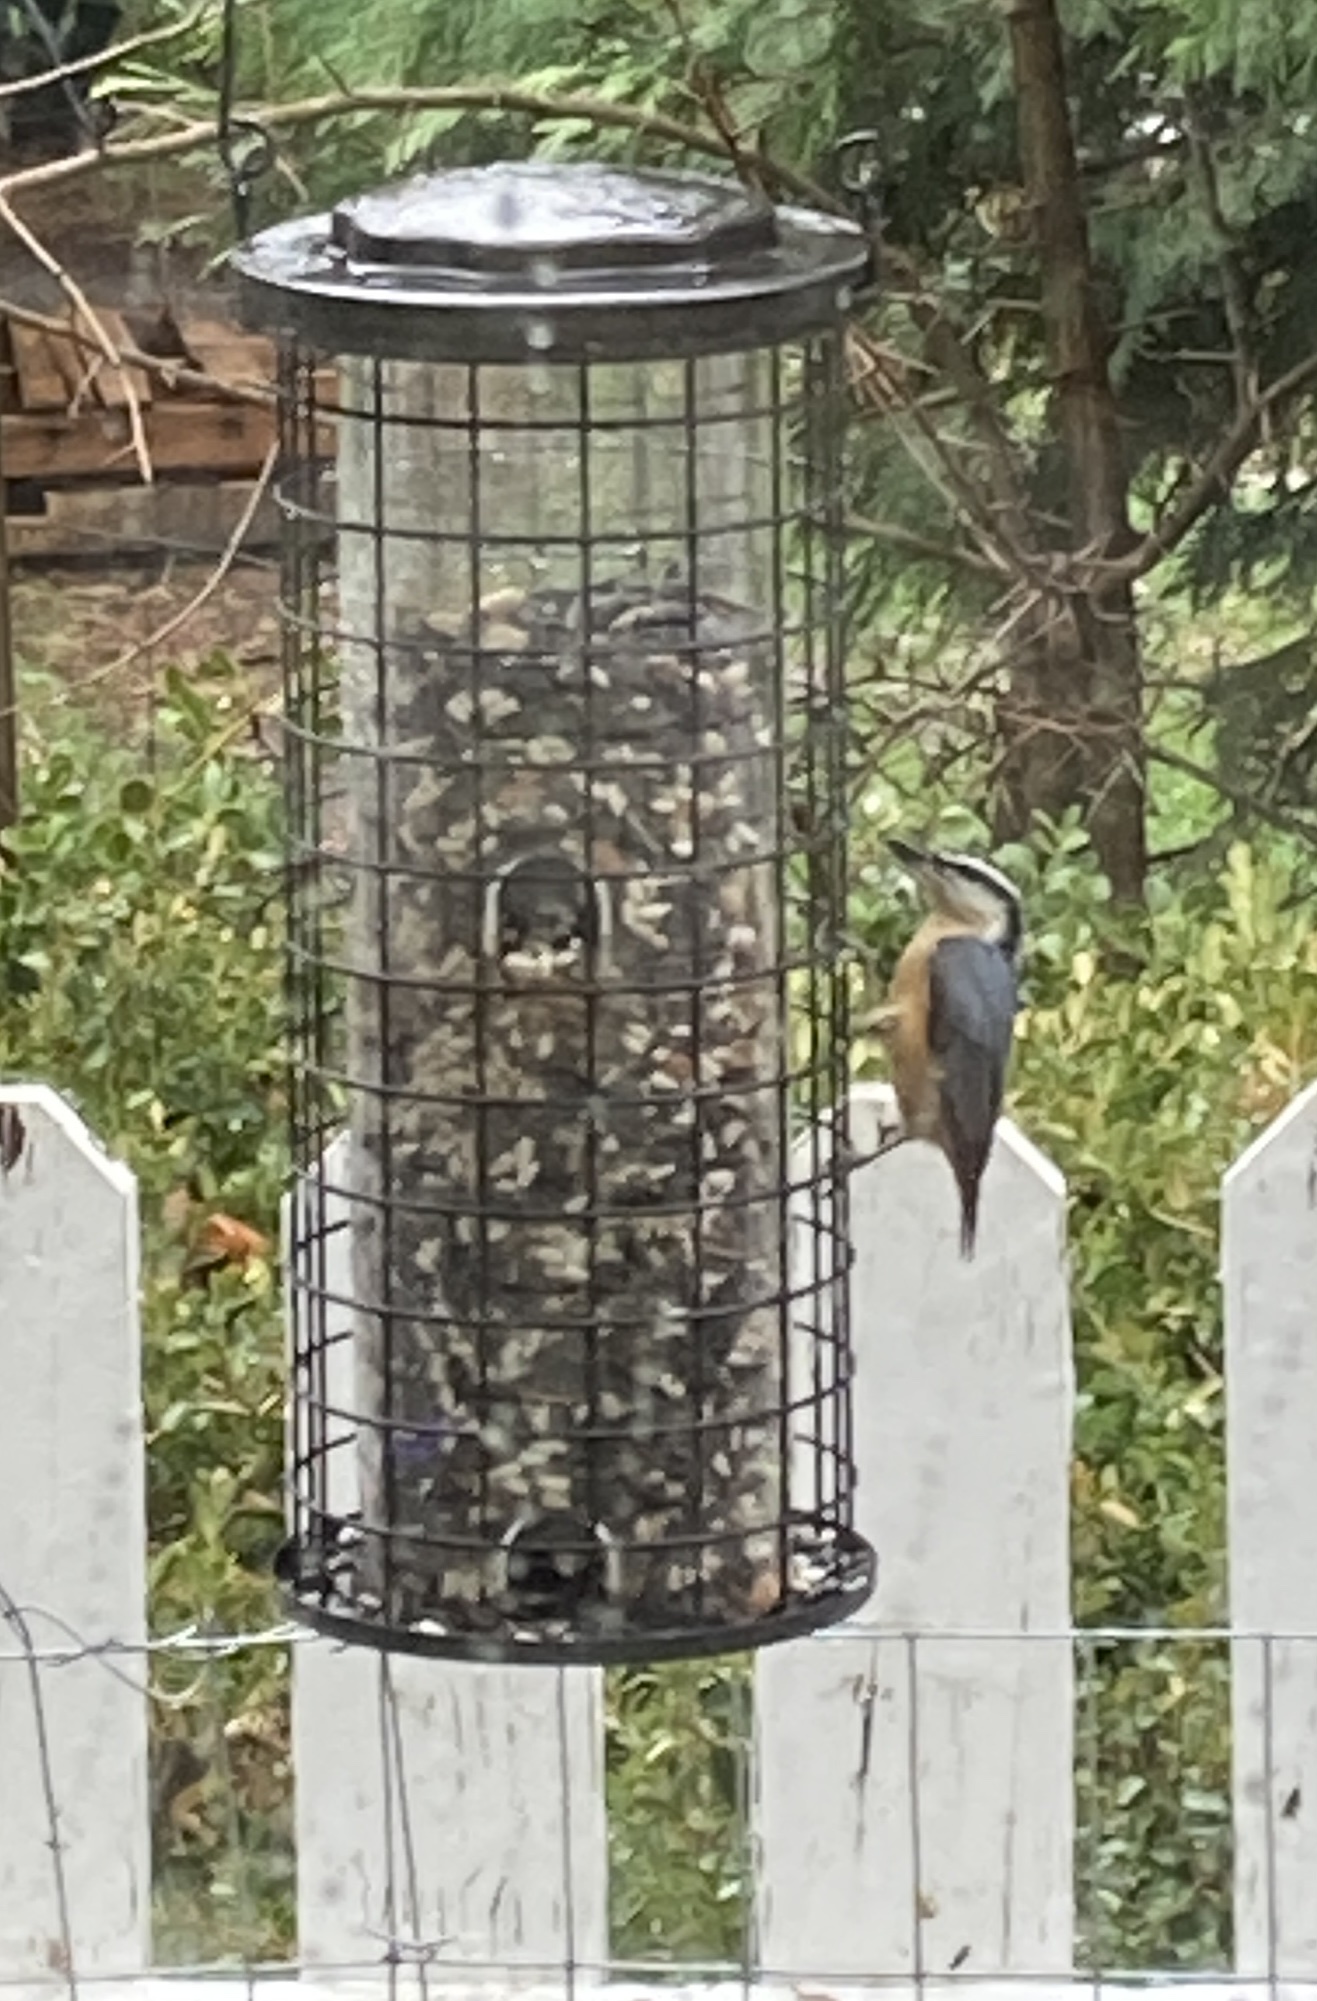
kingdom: Animalia
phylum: Chordata
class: Aves
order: Passeriformes
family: Sittidae
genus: Sitta
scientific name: Sitta canadensis
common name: Red-breasted nuthatch
